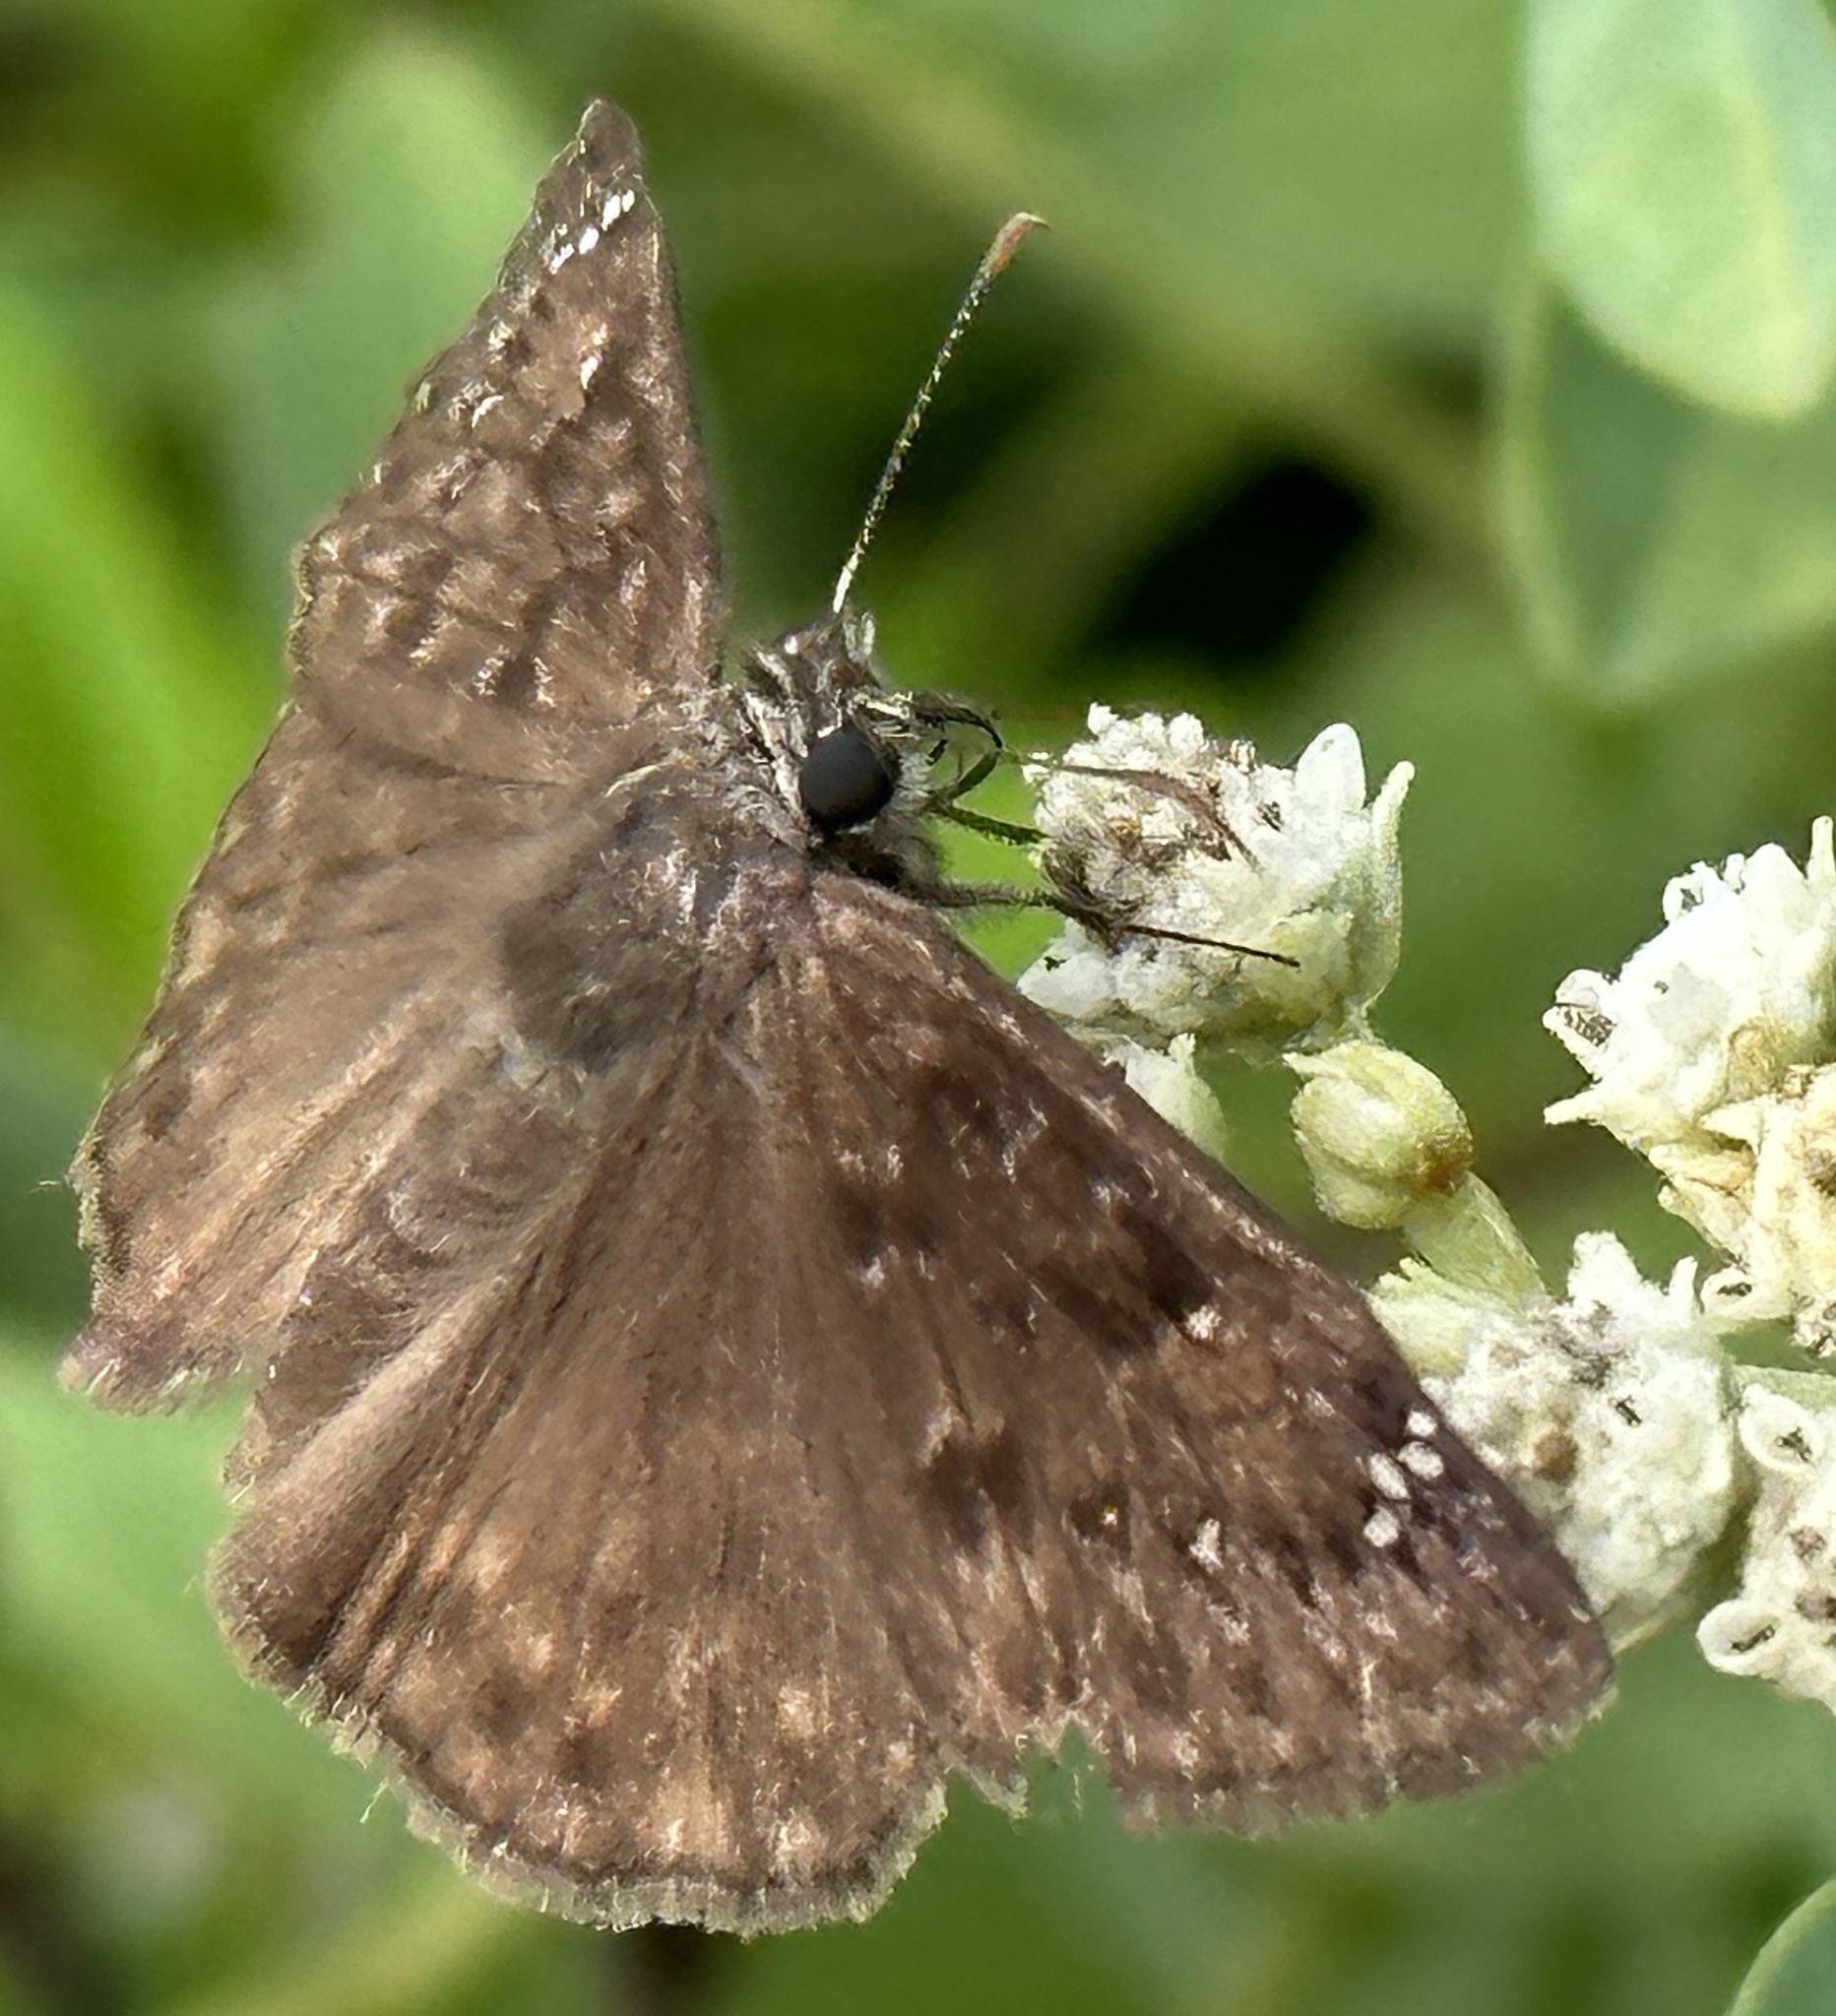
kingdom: Animalia
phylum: Arthropoda
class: Insecta
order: Lepidoptera
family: Hesperiidae
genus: Erynnis
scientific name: Erynnis horatius
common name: Horace's duskywing
